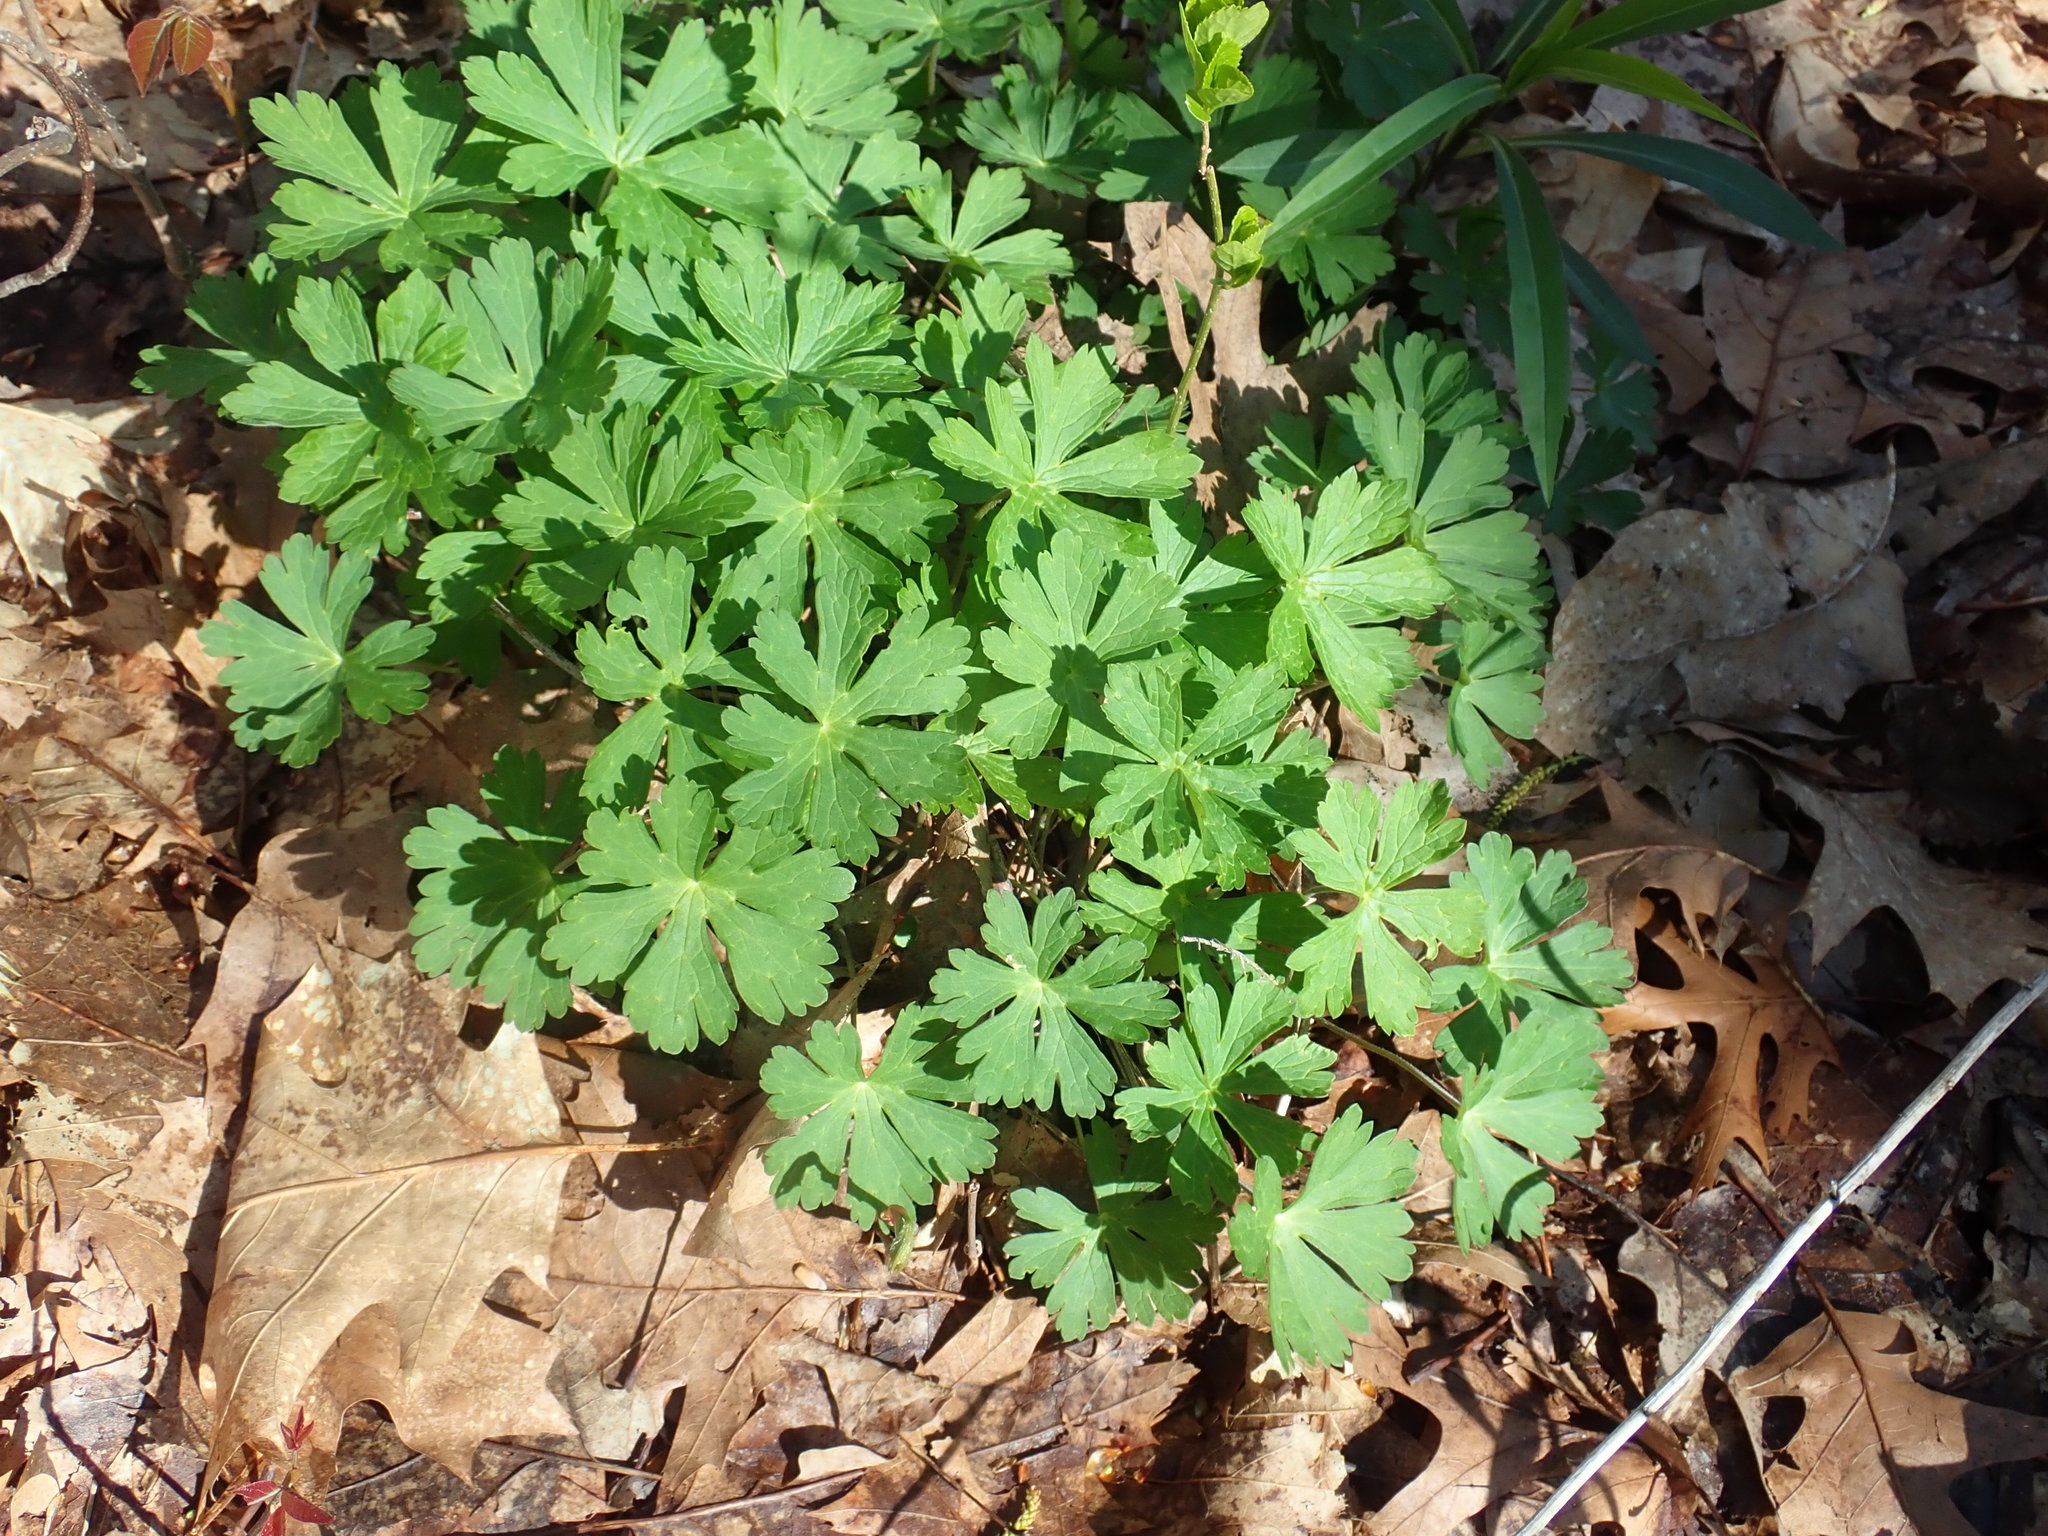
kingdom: Plantae
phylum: Tracheophyta
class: Magnoliopsida
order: Geraniales
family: Geraniaceae
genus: Geranium
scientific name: Geranium maculatum
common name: Spotted geranium
